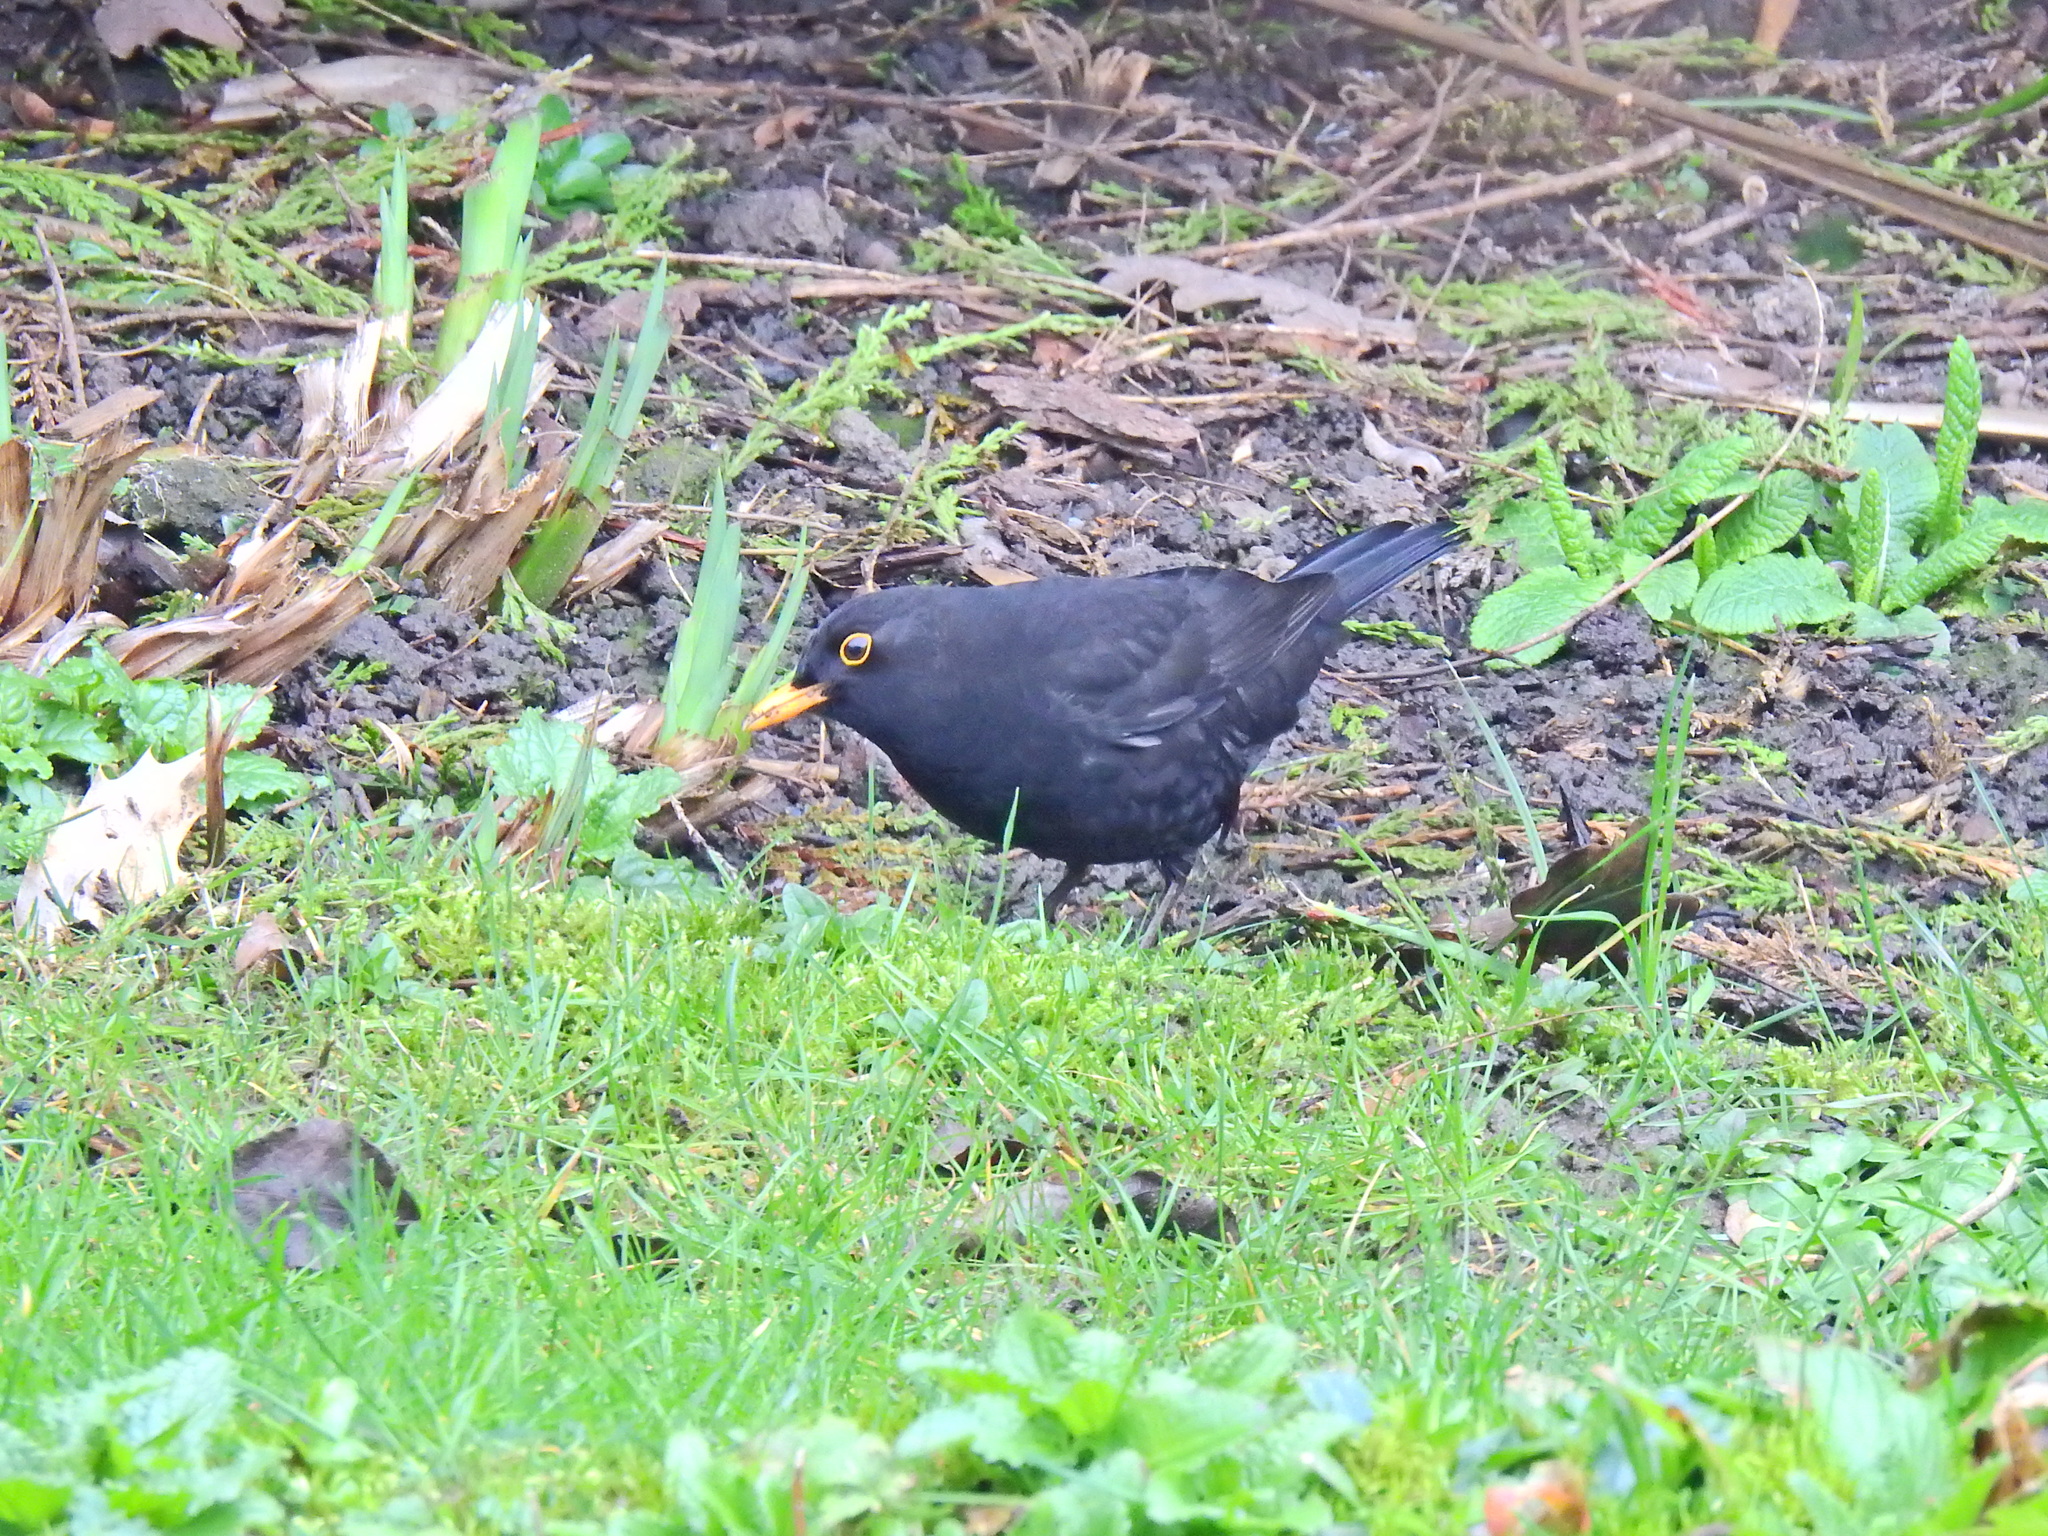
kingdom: Animalia
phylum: Chordata
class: Aves
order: Passeriformes
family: Turdidae
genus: Turdus
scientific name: Turdus merula
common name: Common blackbird
